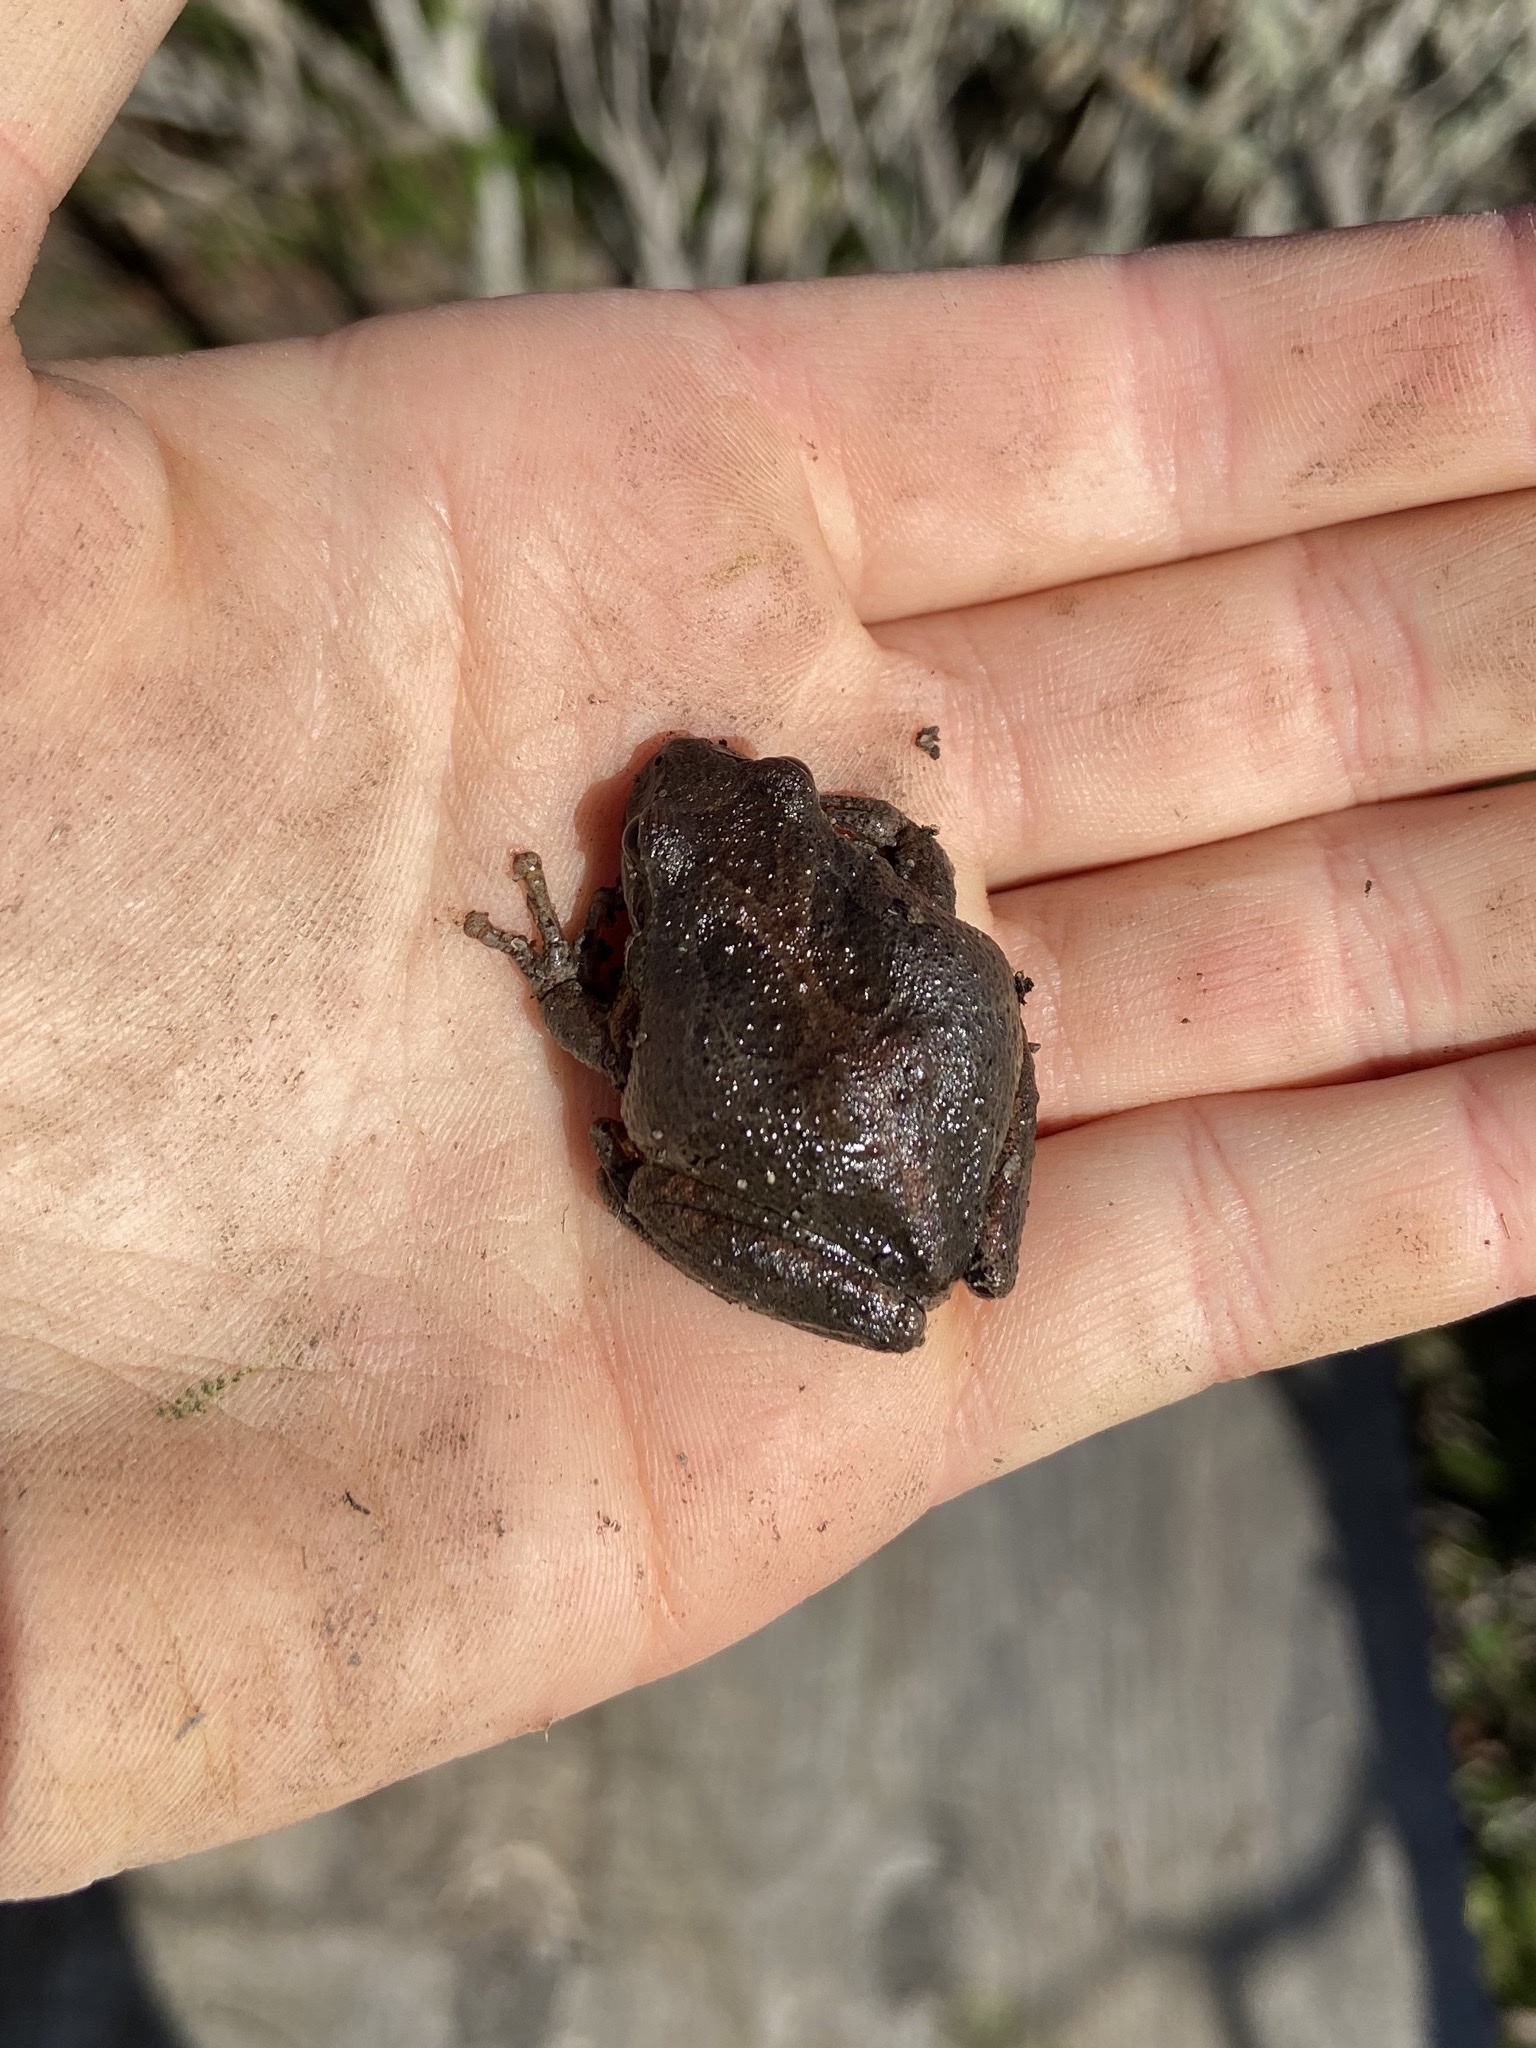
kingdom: Animalia
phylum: Chordata
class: Amphibia
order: Anura
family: Hylidae
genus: Pseudacris
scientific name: Pseudacris regilla
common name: Pacific chorus frog
